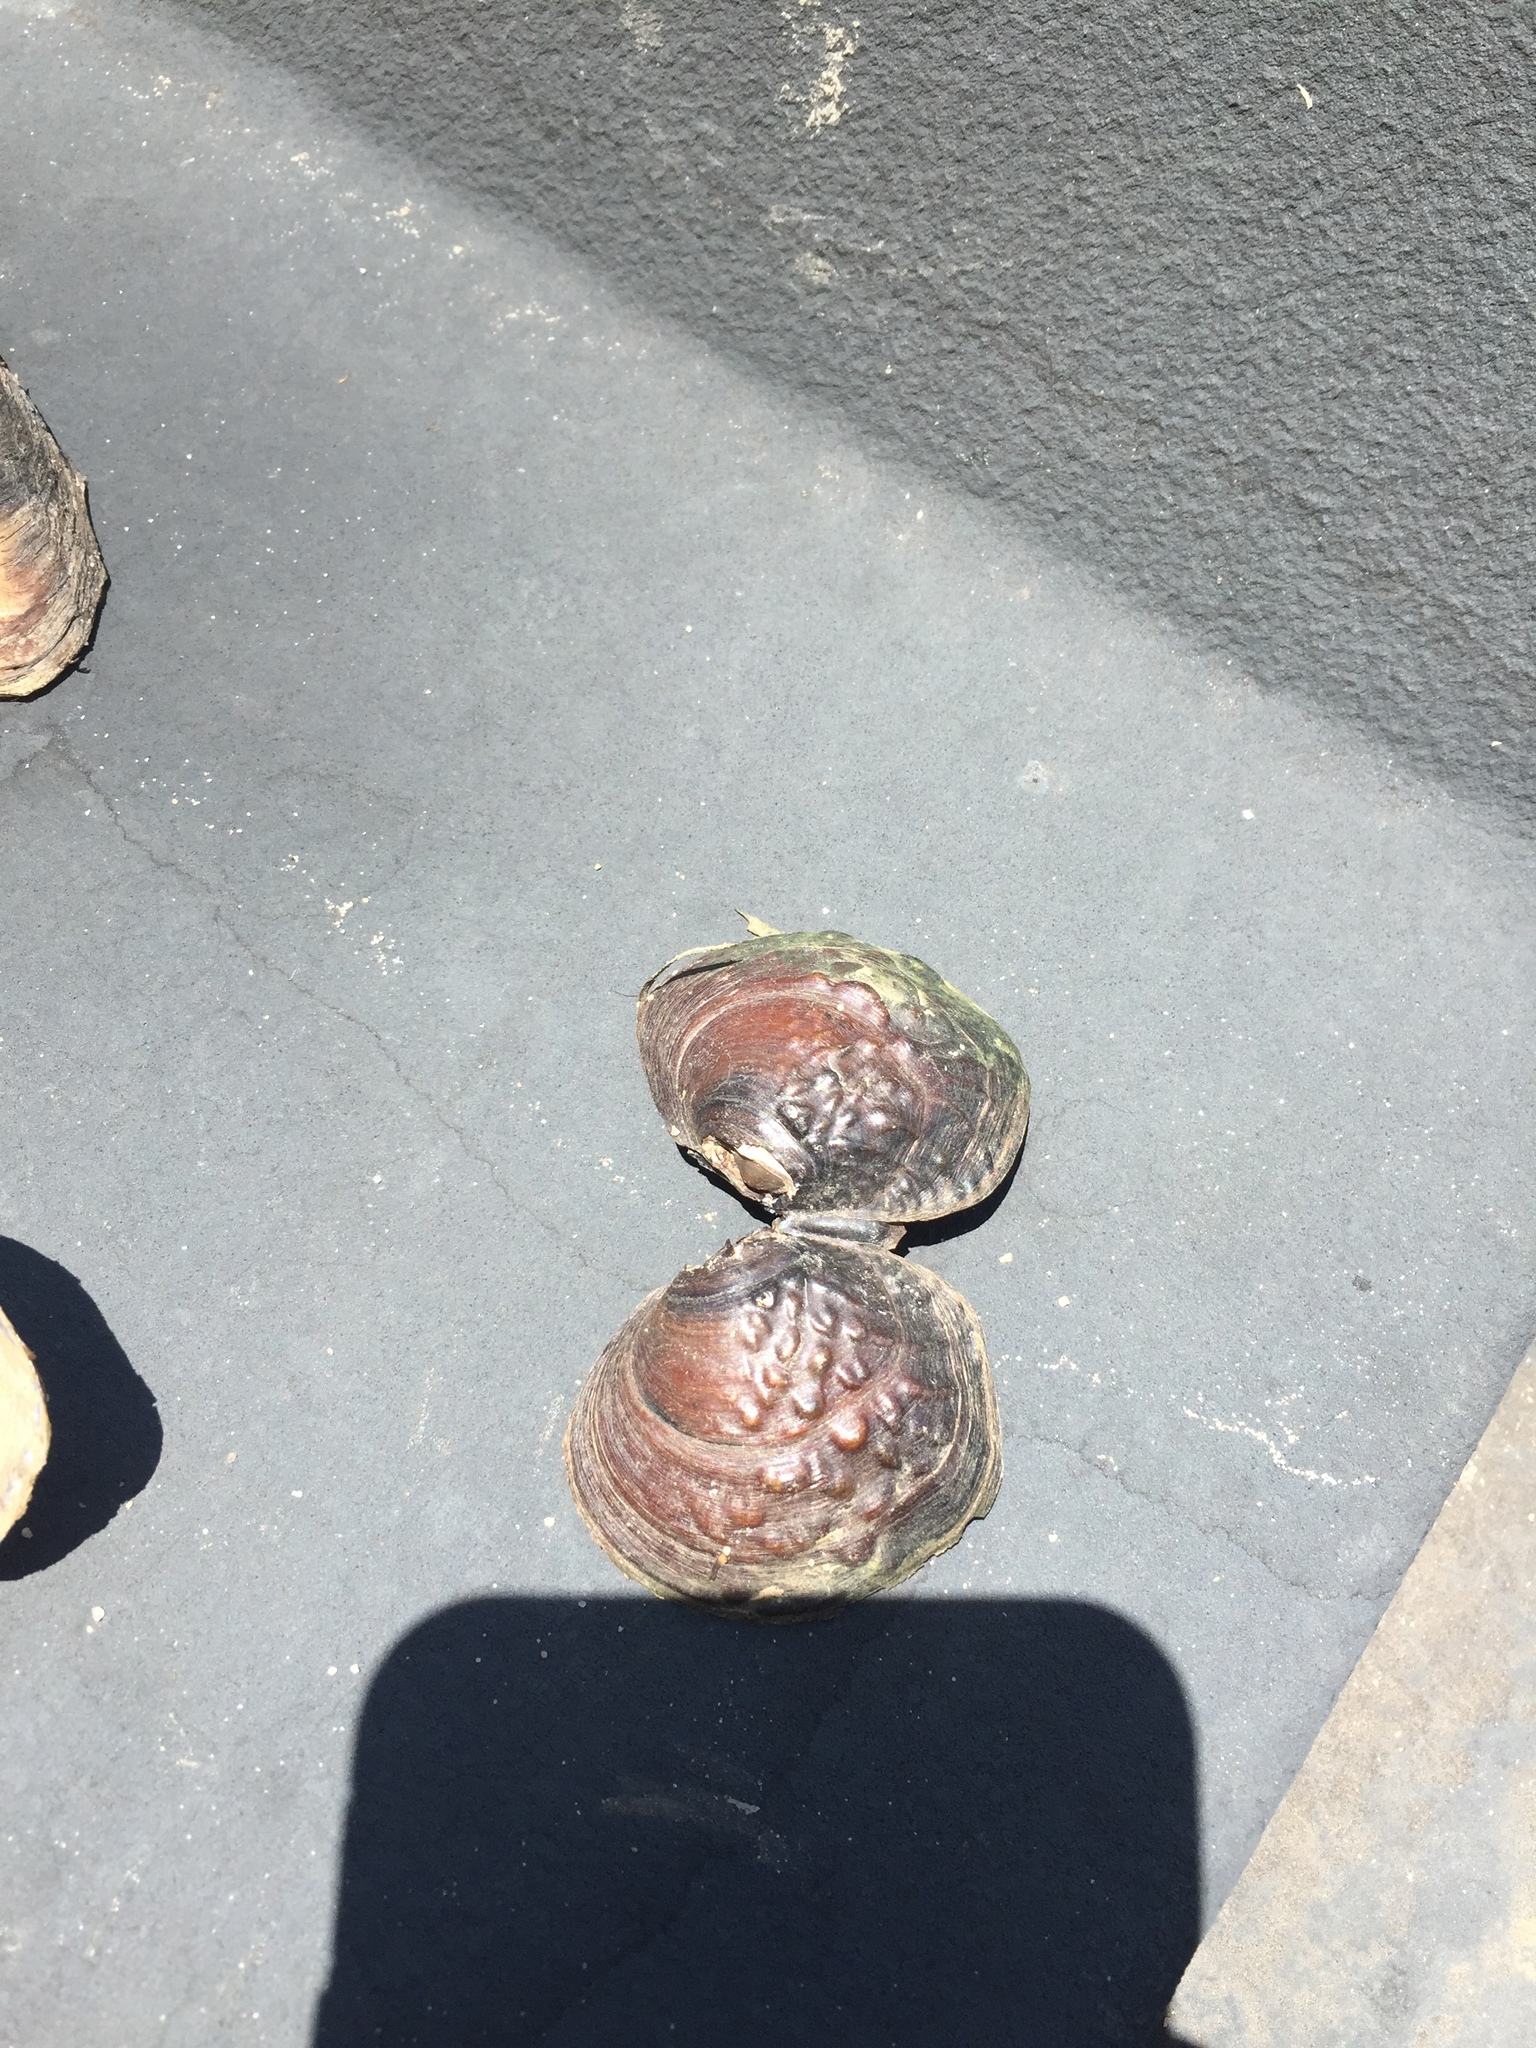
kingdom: Animalia
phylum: Mollusca
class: Bivalvia
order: Unionida
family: Unionidae
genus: Cyclonaias
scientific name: Cyclonaias pustulosa
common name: Pimpleback
